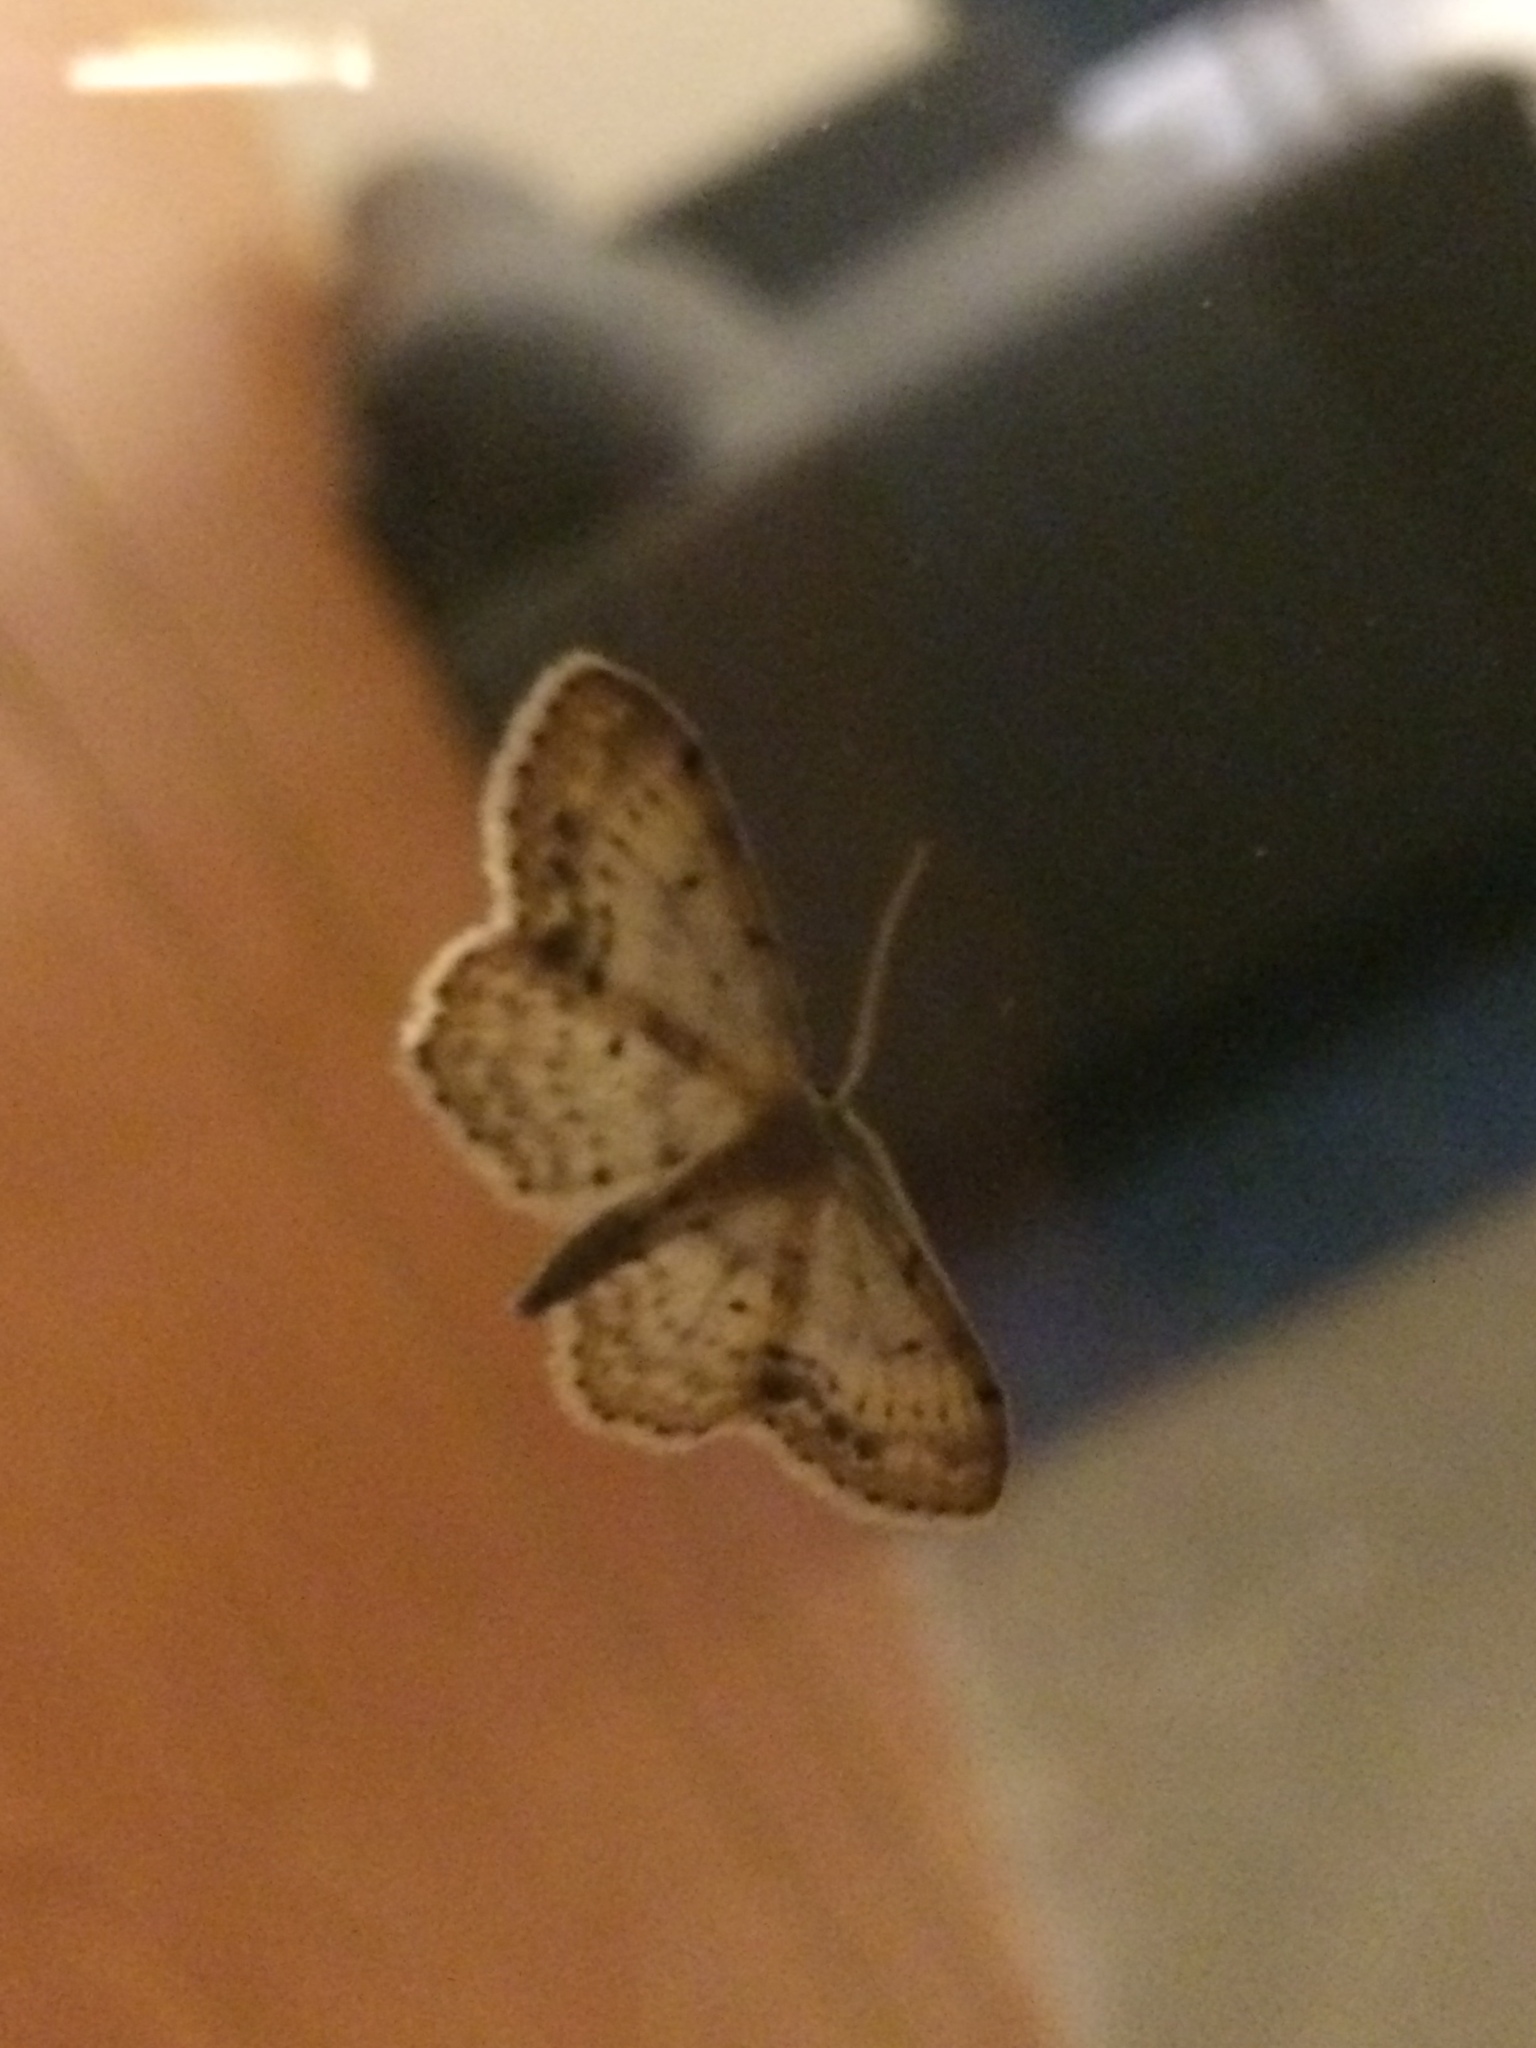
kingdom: Animalia
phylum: Arthropoda
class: Insecta
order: Lepidoptera
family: Geometridae
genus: Idaea
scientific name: Idaea dimidiata
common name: Single-dotted wave
